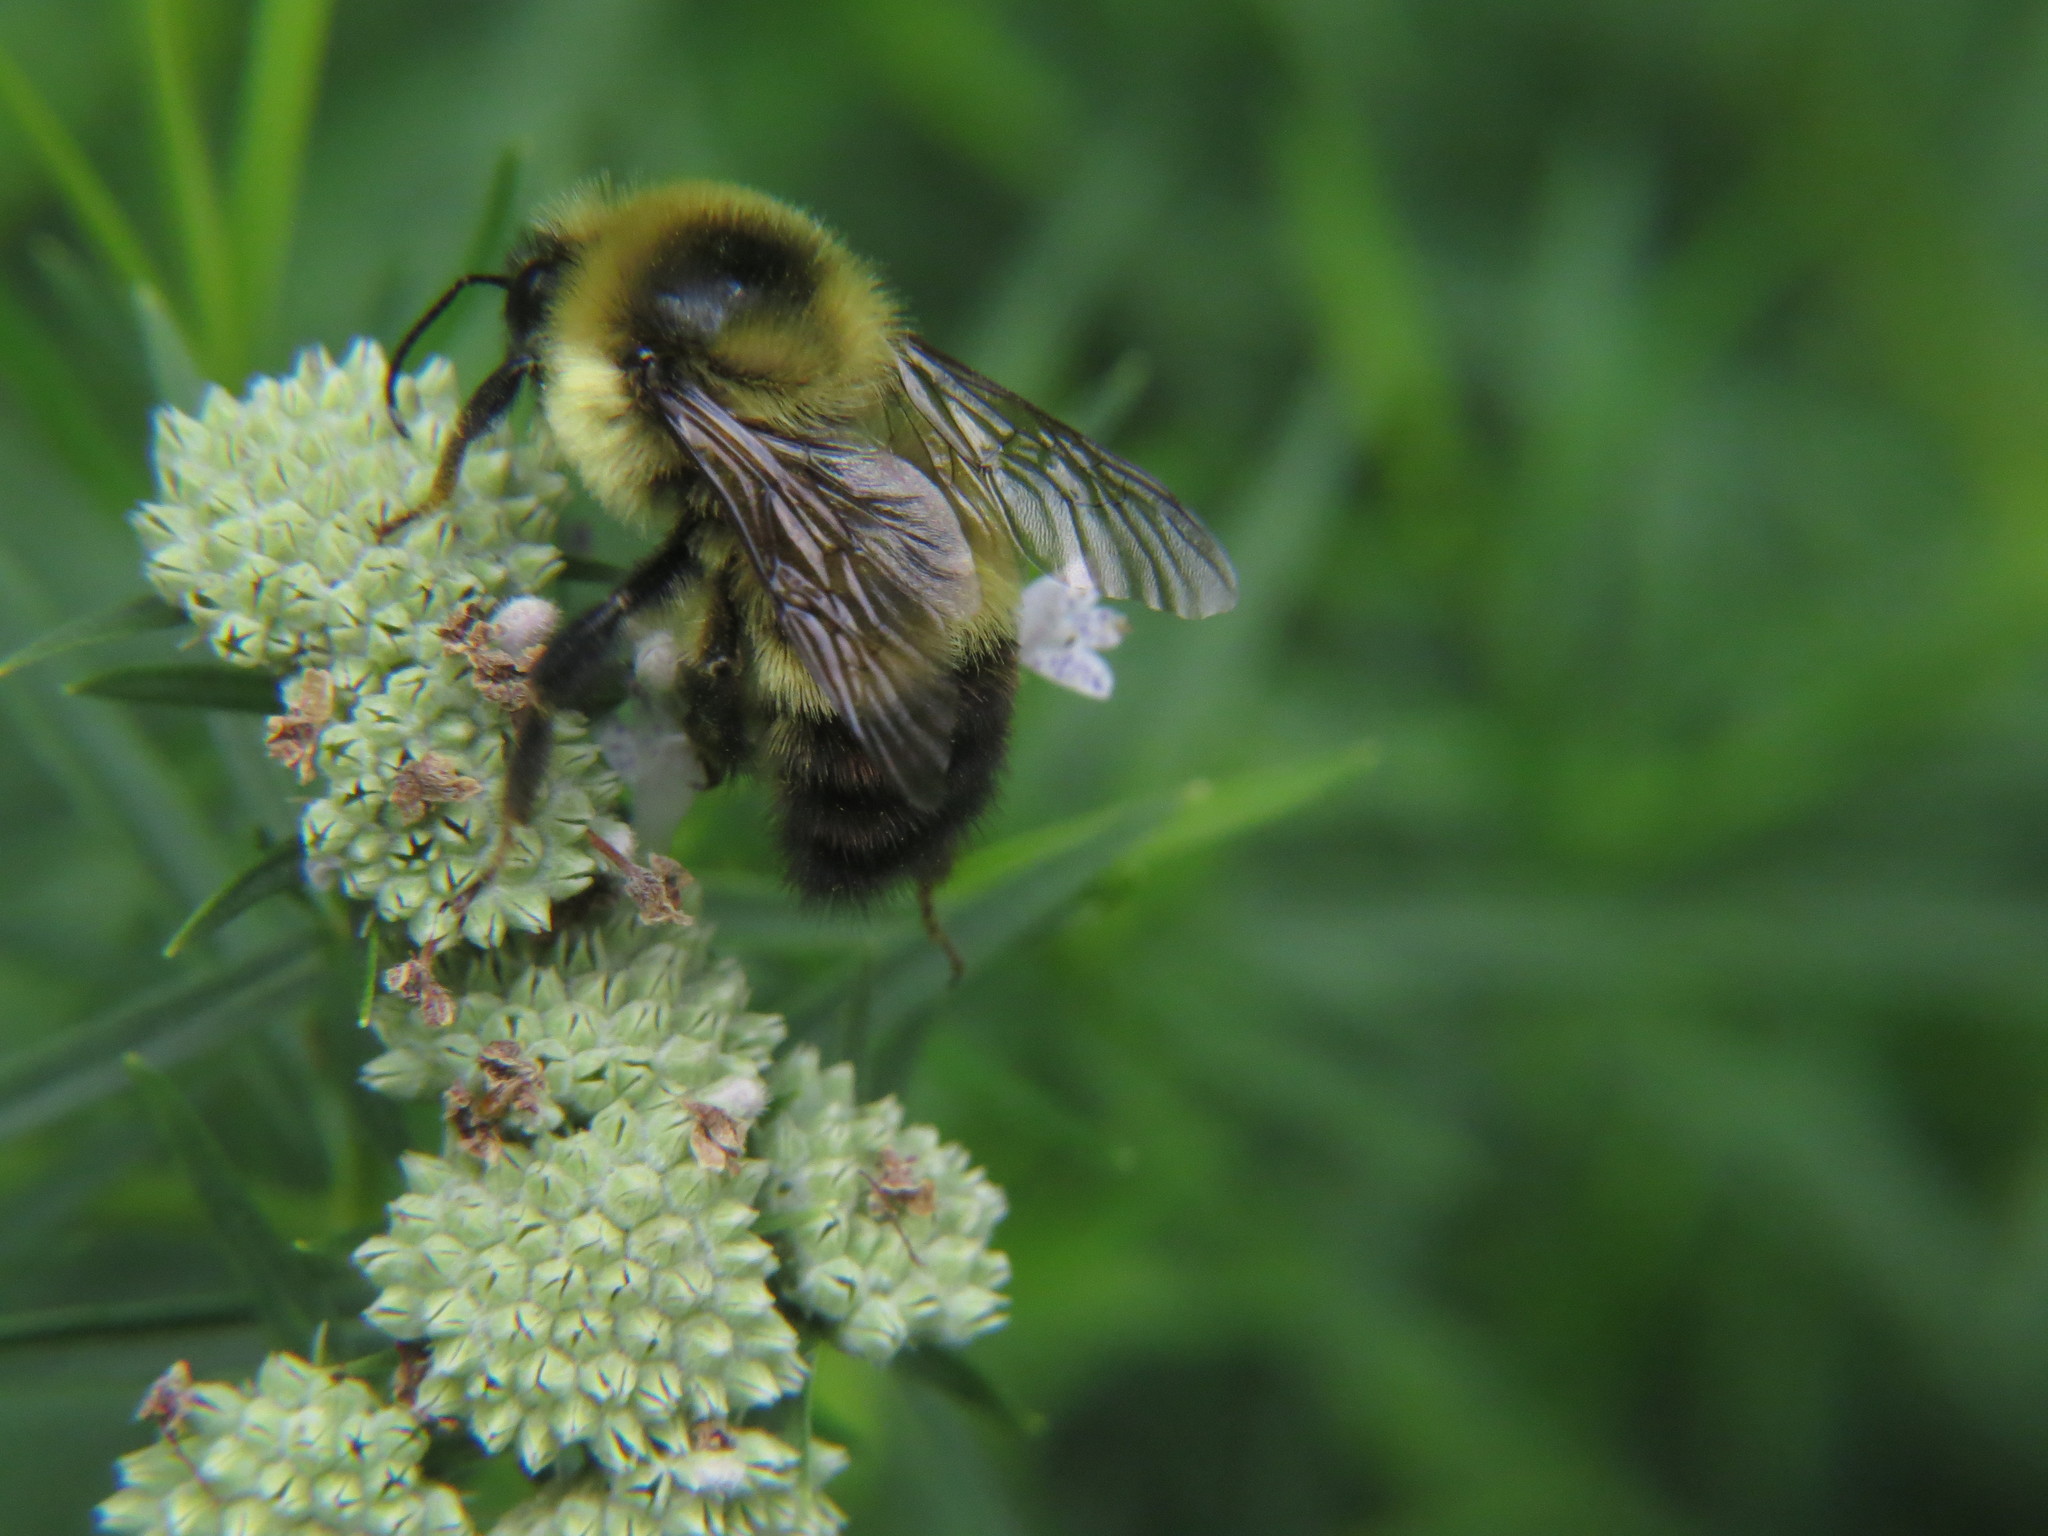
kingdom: Animalia
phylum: Arthropoda
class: Insecta
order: Hymenoptera
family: Apidae
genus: Bombus
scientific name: Bombus rufocinctus
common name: Red-belted bumble bee
